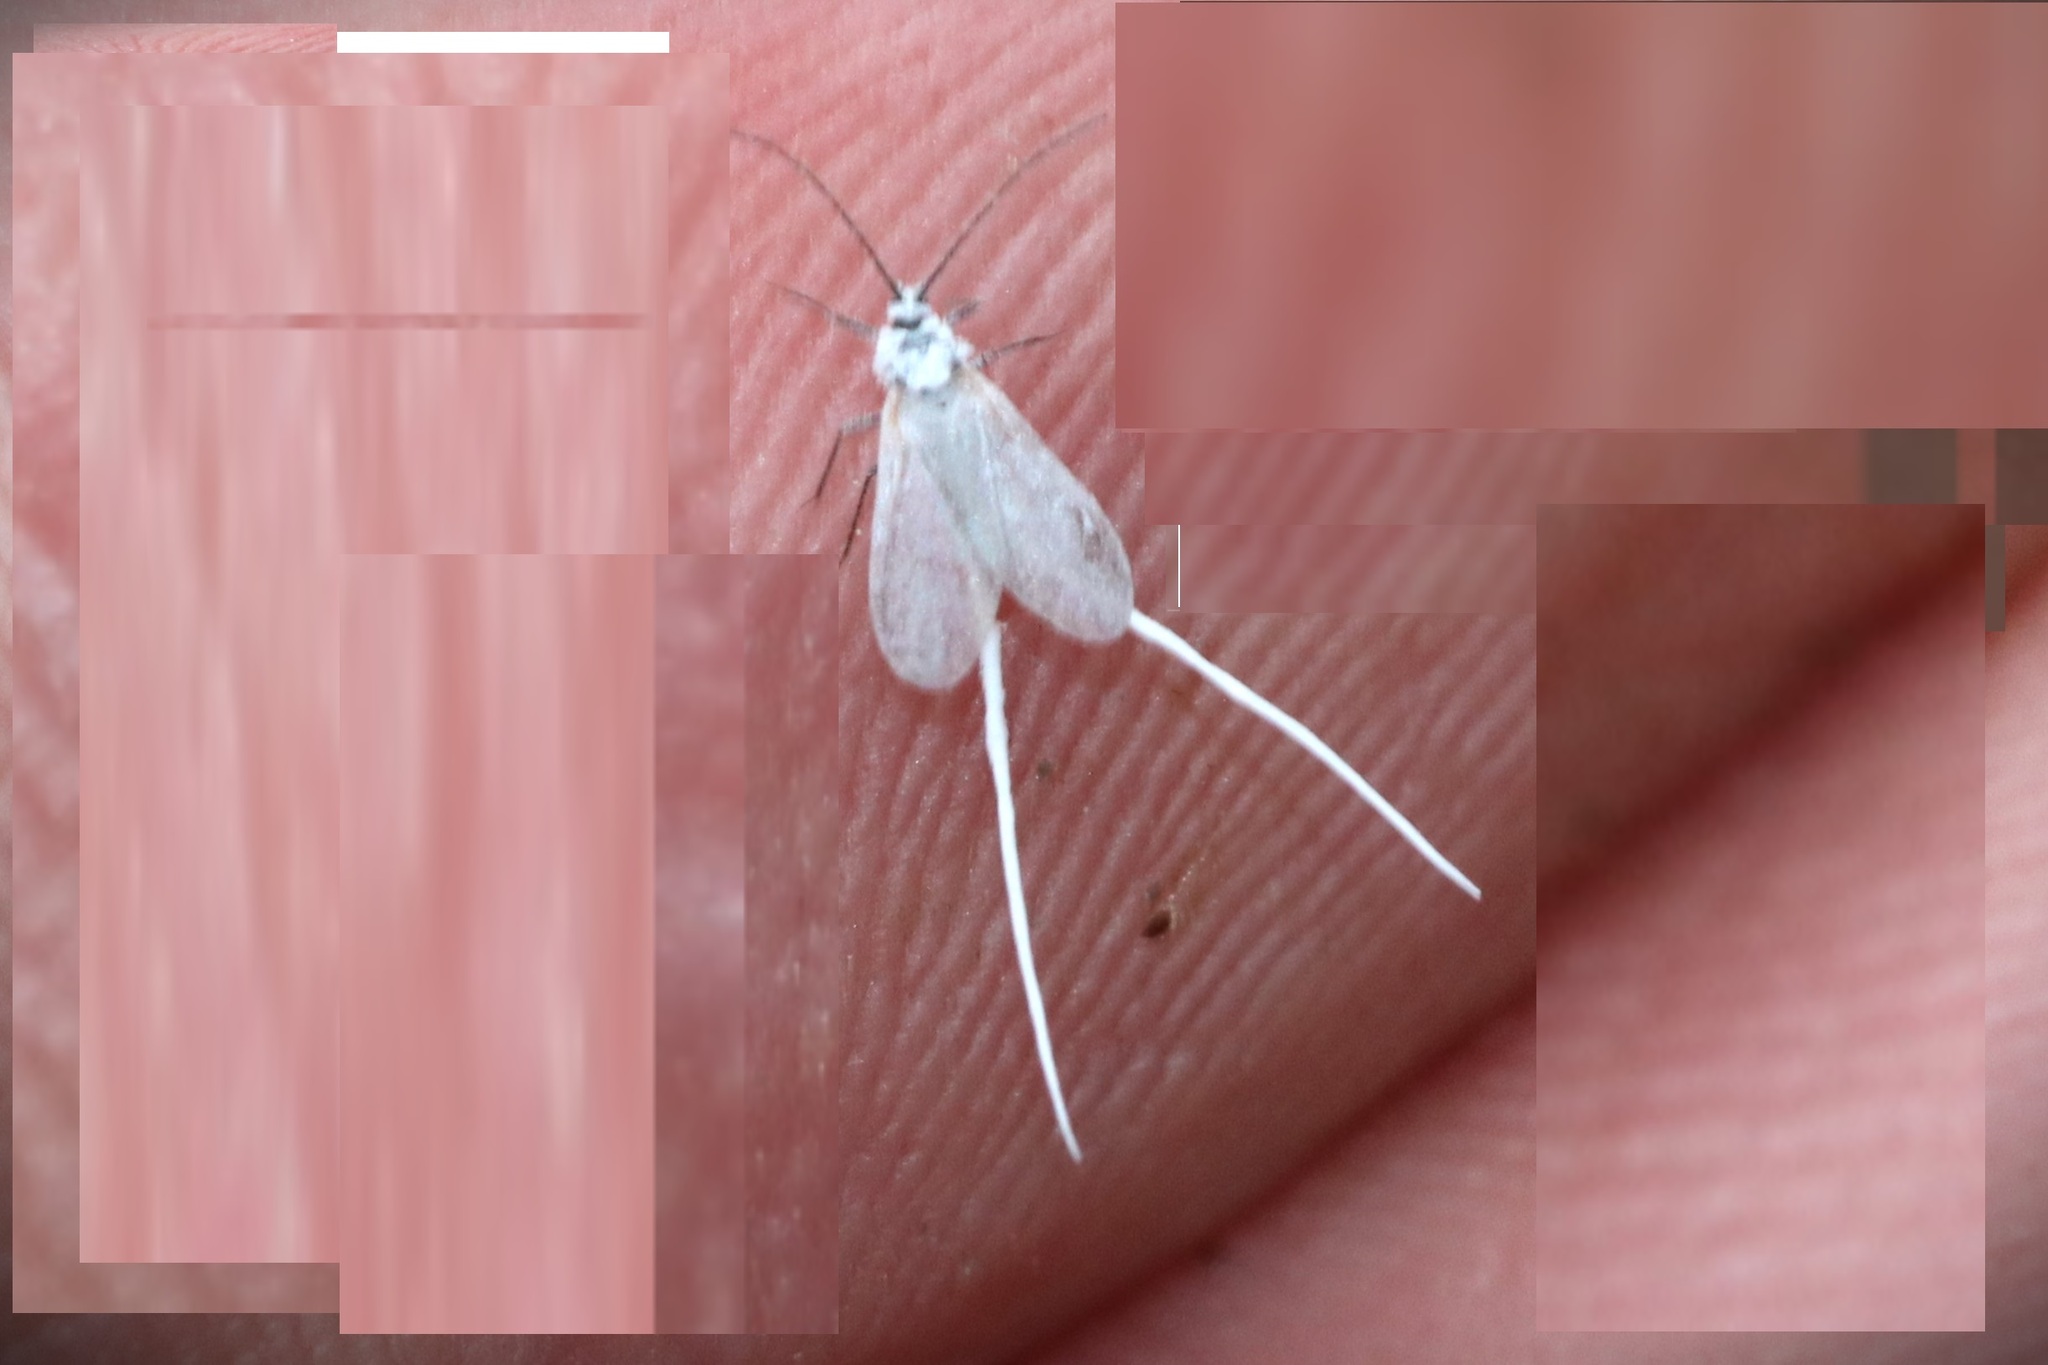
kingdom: Animalia
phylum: Arthropoda
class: Insecta
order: Hemiptera
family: Pseudococcidae
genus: Puto
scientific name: Puto
